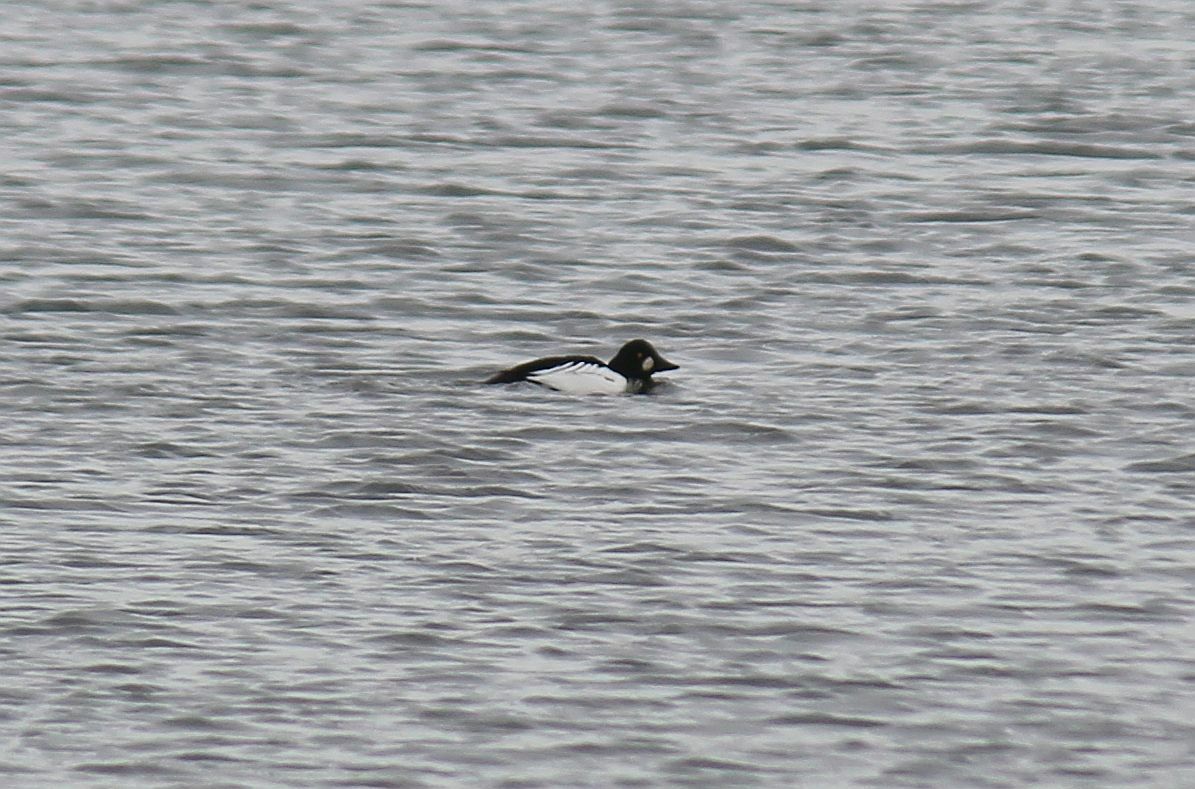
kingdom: Animalia
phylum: Chordata
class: Aves
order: Anseriformes
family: Anatidae
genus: Bucephala
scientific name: Bucephala clangula
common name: Common goldeneye
